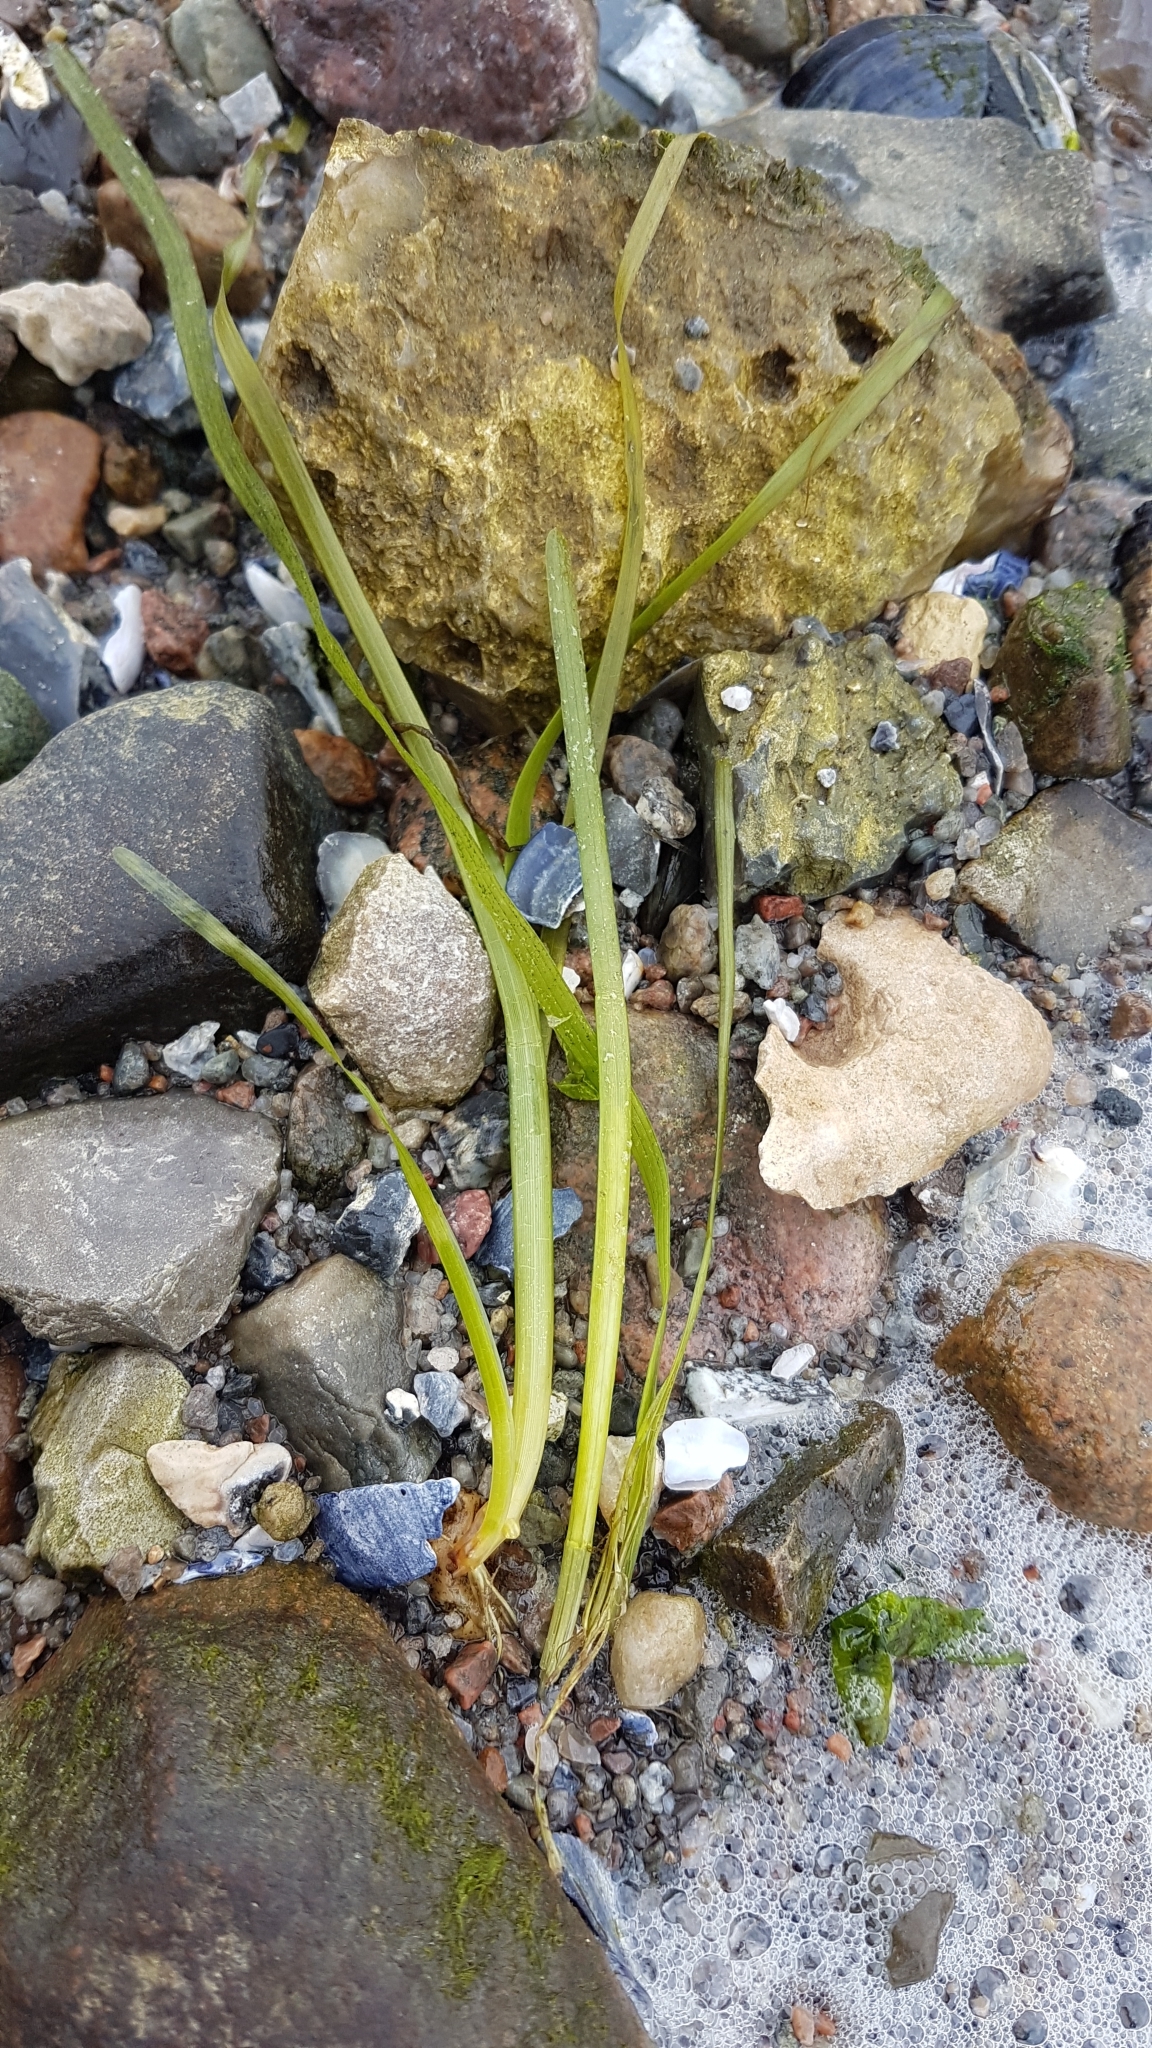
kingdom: Plantae
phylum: Tracheophyta
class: Liliopsida
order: Alismatales
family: Zosteraceae
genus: Zostera
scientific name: Zostera marina
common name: Eelgrass
